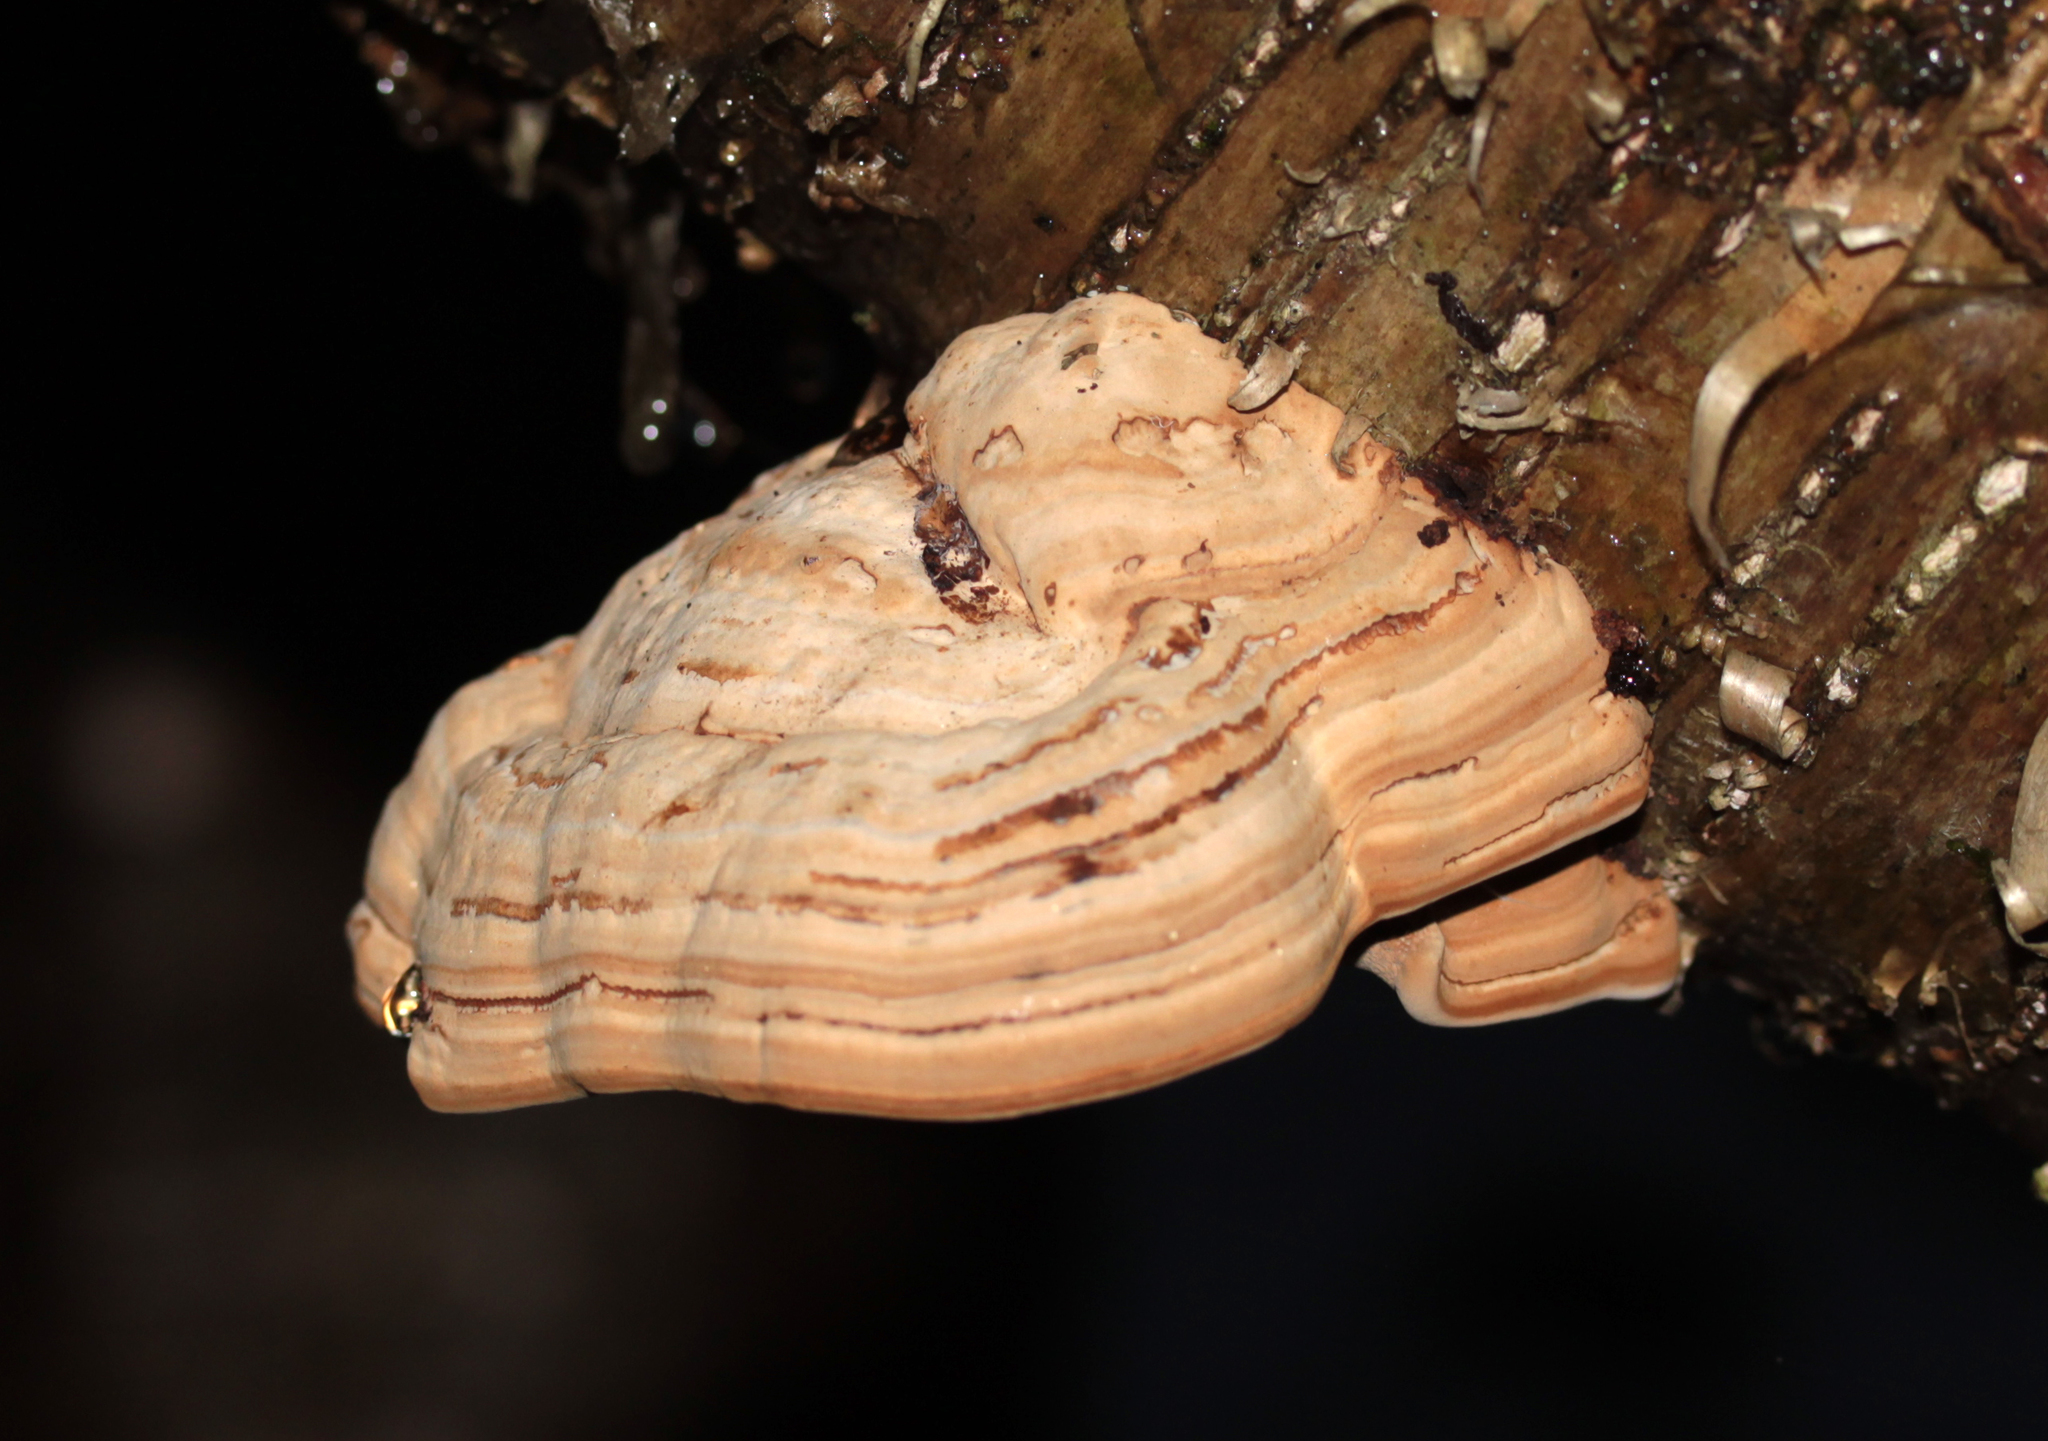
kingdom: Fungi
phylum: Basidiomycota
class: Agaricomycetes
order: Polyporales
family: Polyporaceae
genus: Fomes
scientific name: Fomes fomentarius
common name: Hoof fungus
